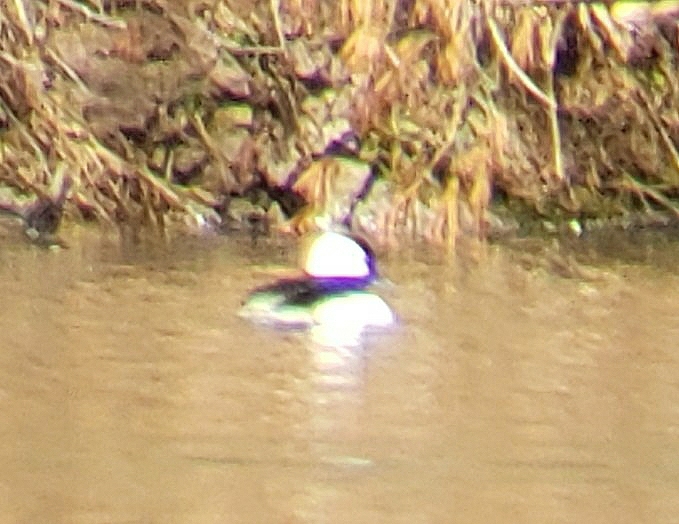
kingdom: Animalia
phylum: Chordata
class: Aves
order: Anseriformes
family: Anatidae
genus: Bucephala
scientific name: Bucephala albeola
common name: Bufflehead
